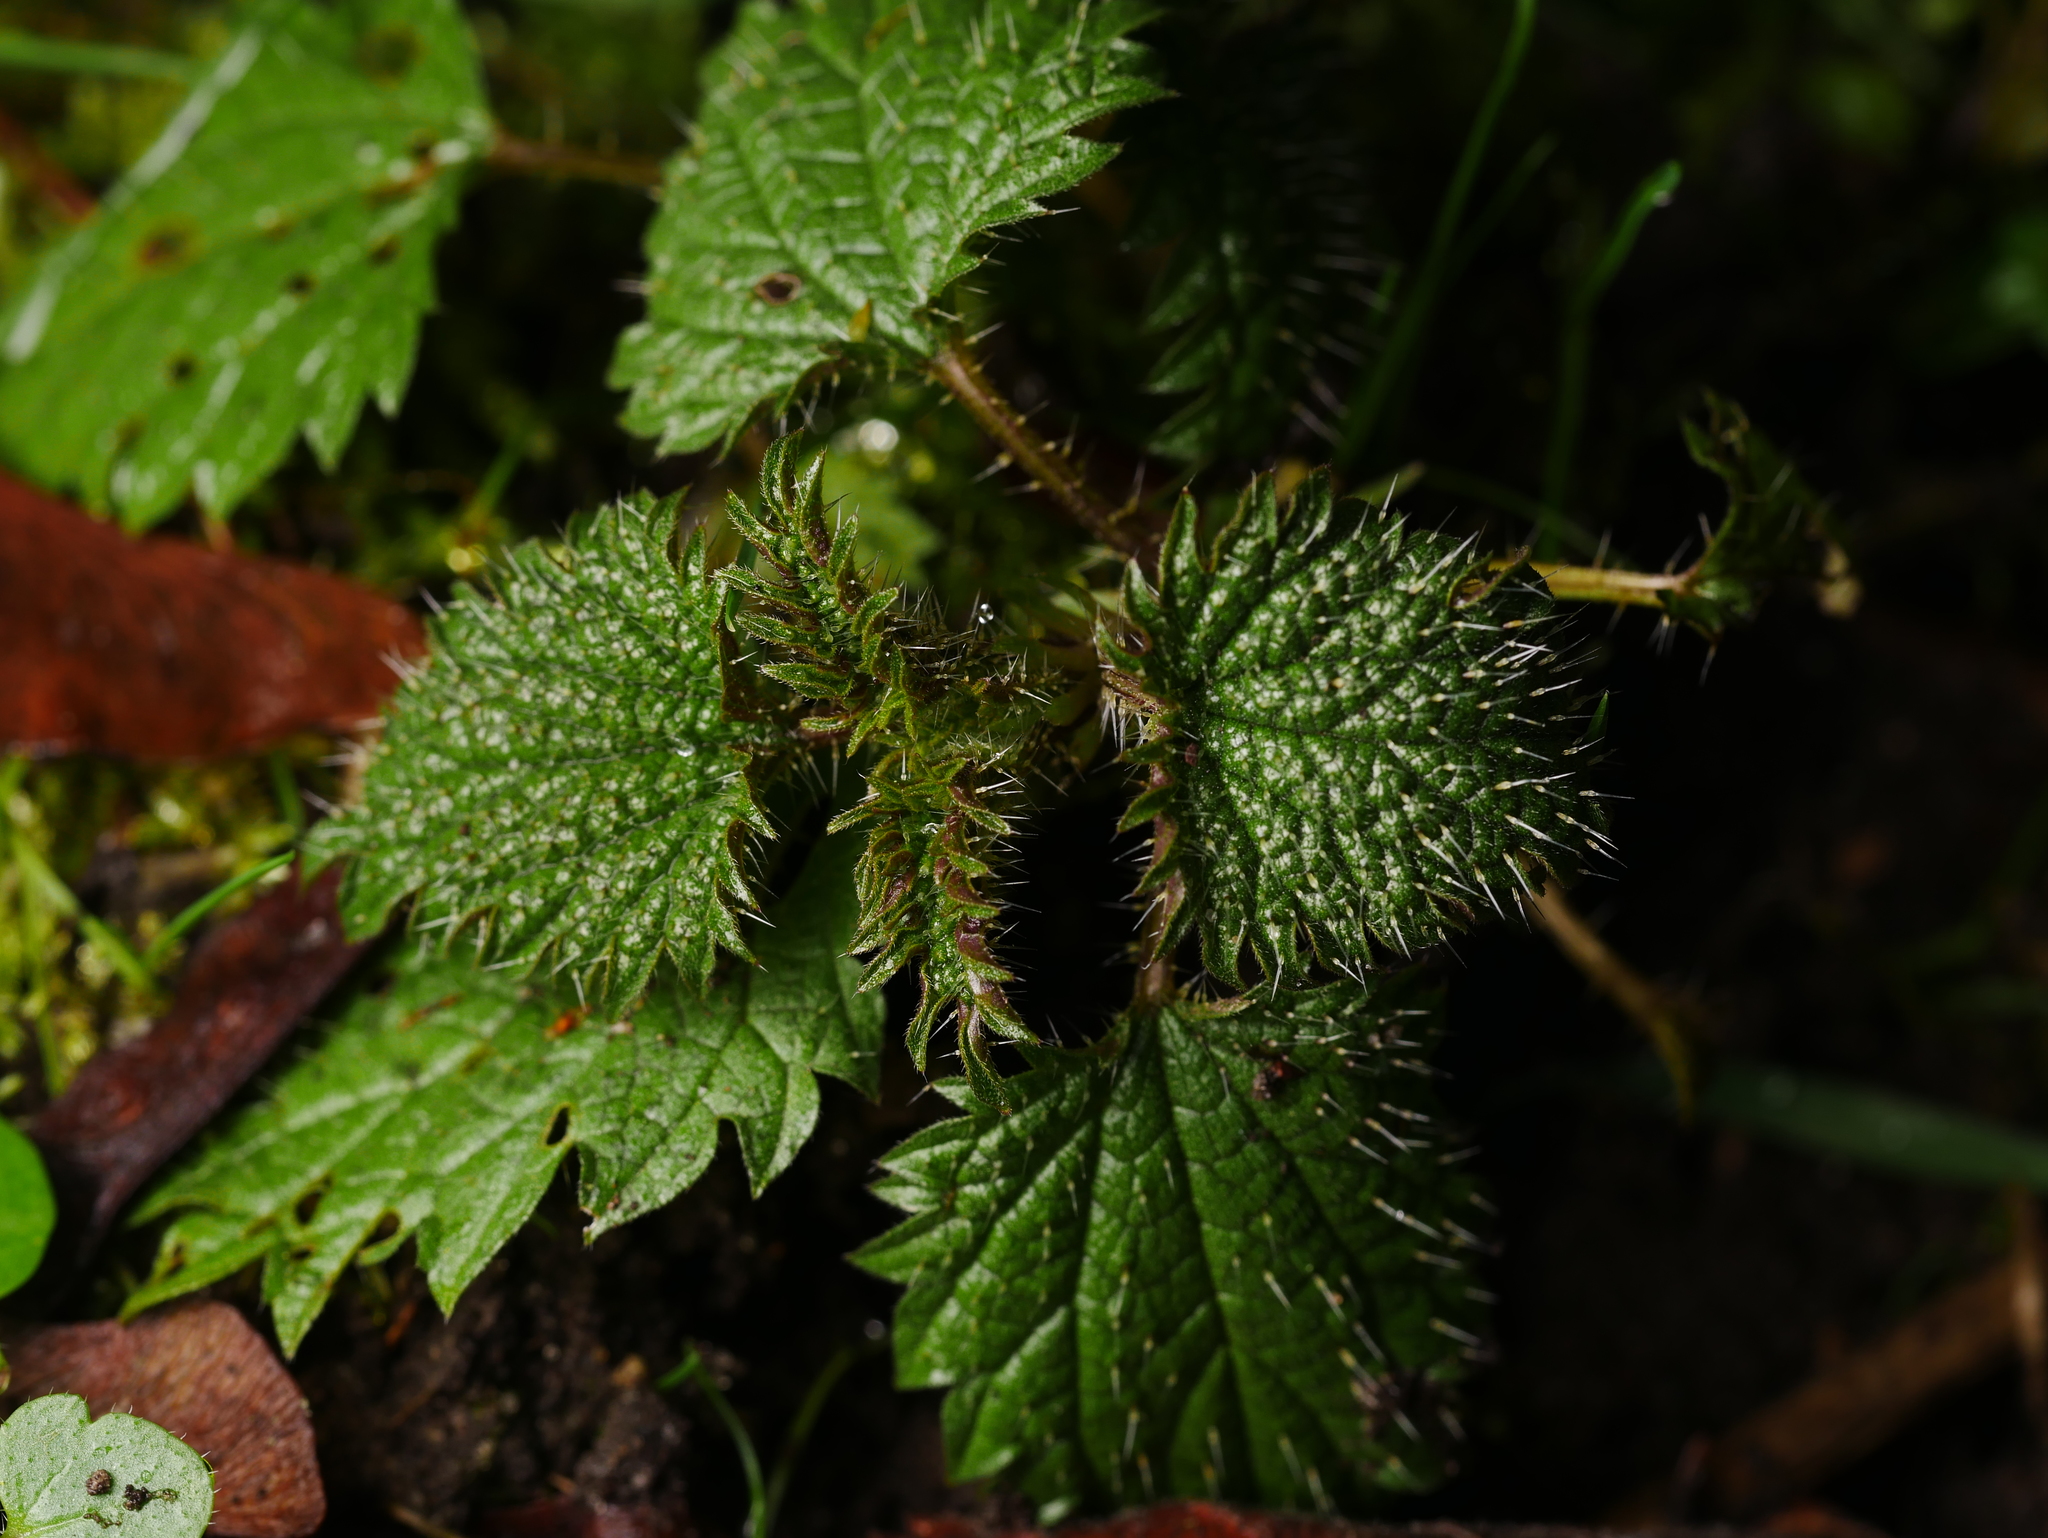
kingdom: Plantae
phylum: Tracheophyta
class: Magnoliopsida
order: Rosales
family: Urticaceae
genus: Urtica
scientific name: Urtica dioica
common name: Common nettle
